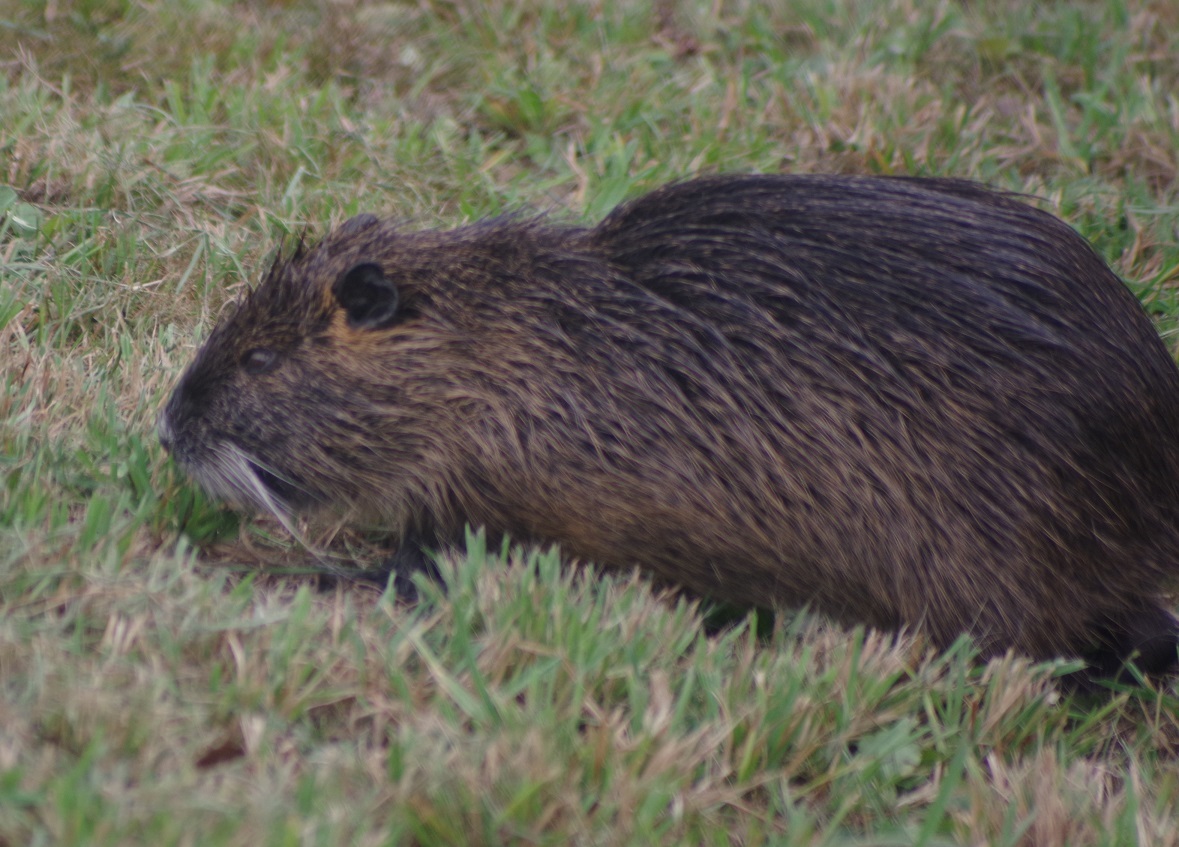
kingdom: Animalia
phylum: Chordata
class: Mammalia
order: Rodentia
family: Myocastoridae
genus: Myocastor
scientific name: Myocastor coypus
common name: Coypu
